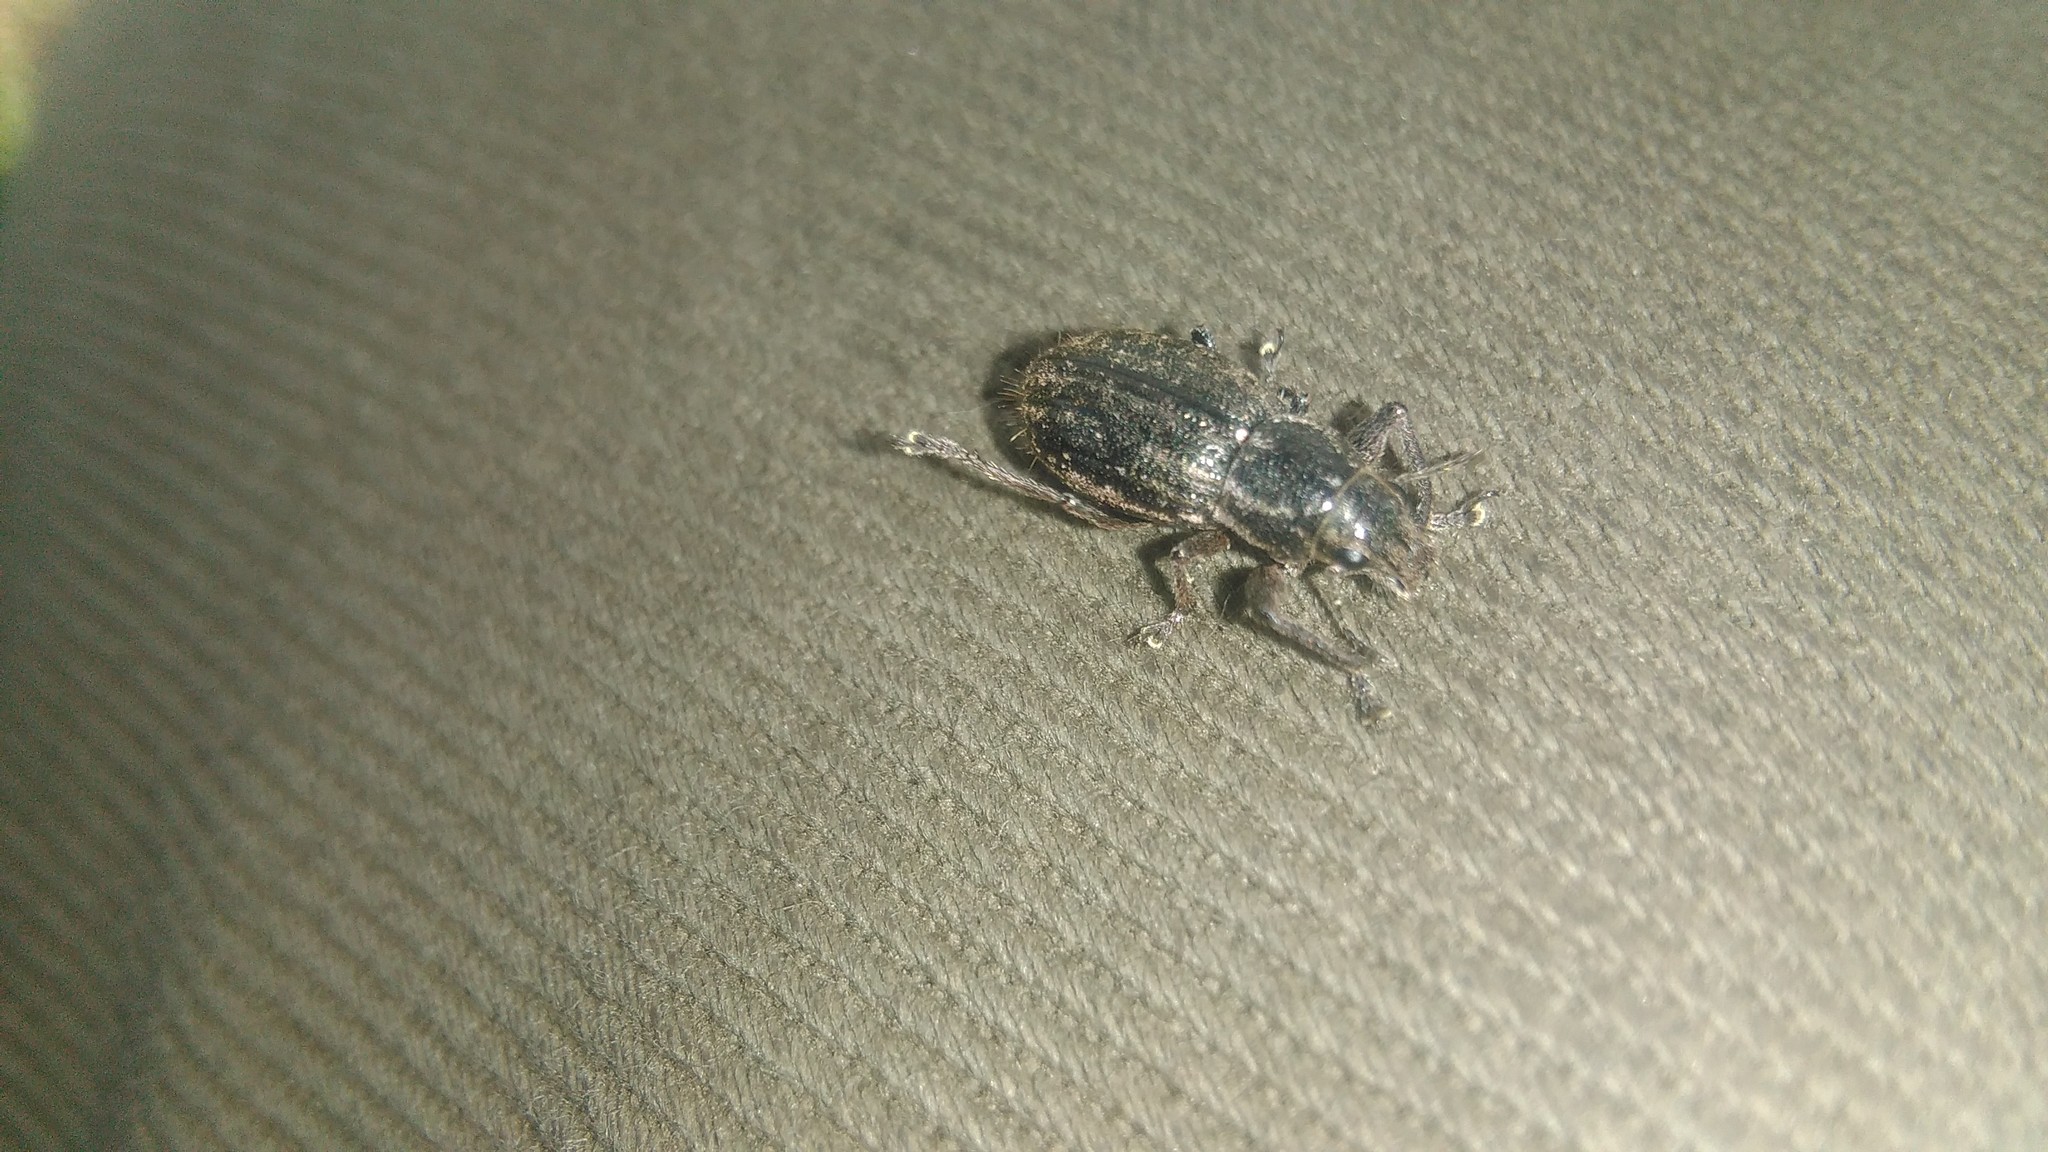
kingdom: Animalia
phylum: Arthropoda
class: Insecta
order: Coleoptera
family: Curculionidae
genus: Naupactus
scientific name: Naupactus leucoloma
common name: Whitefringed beetle
